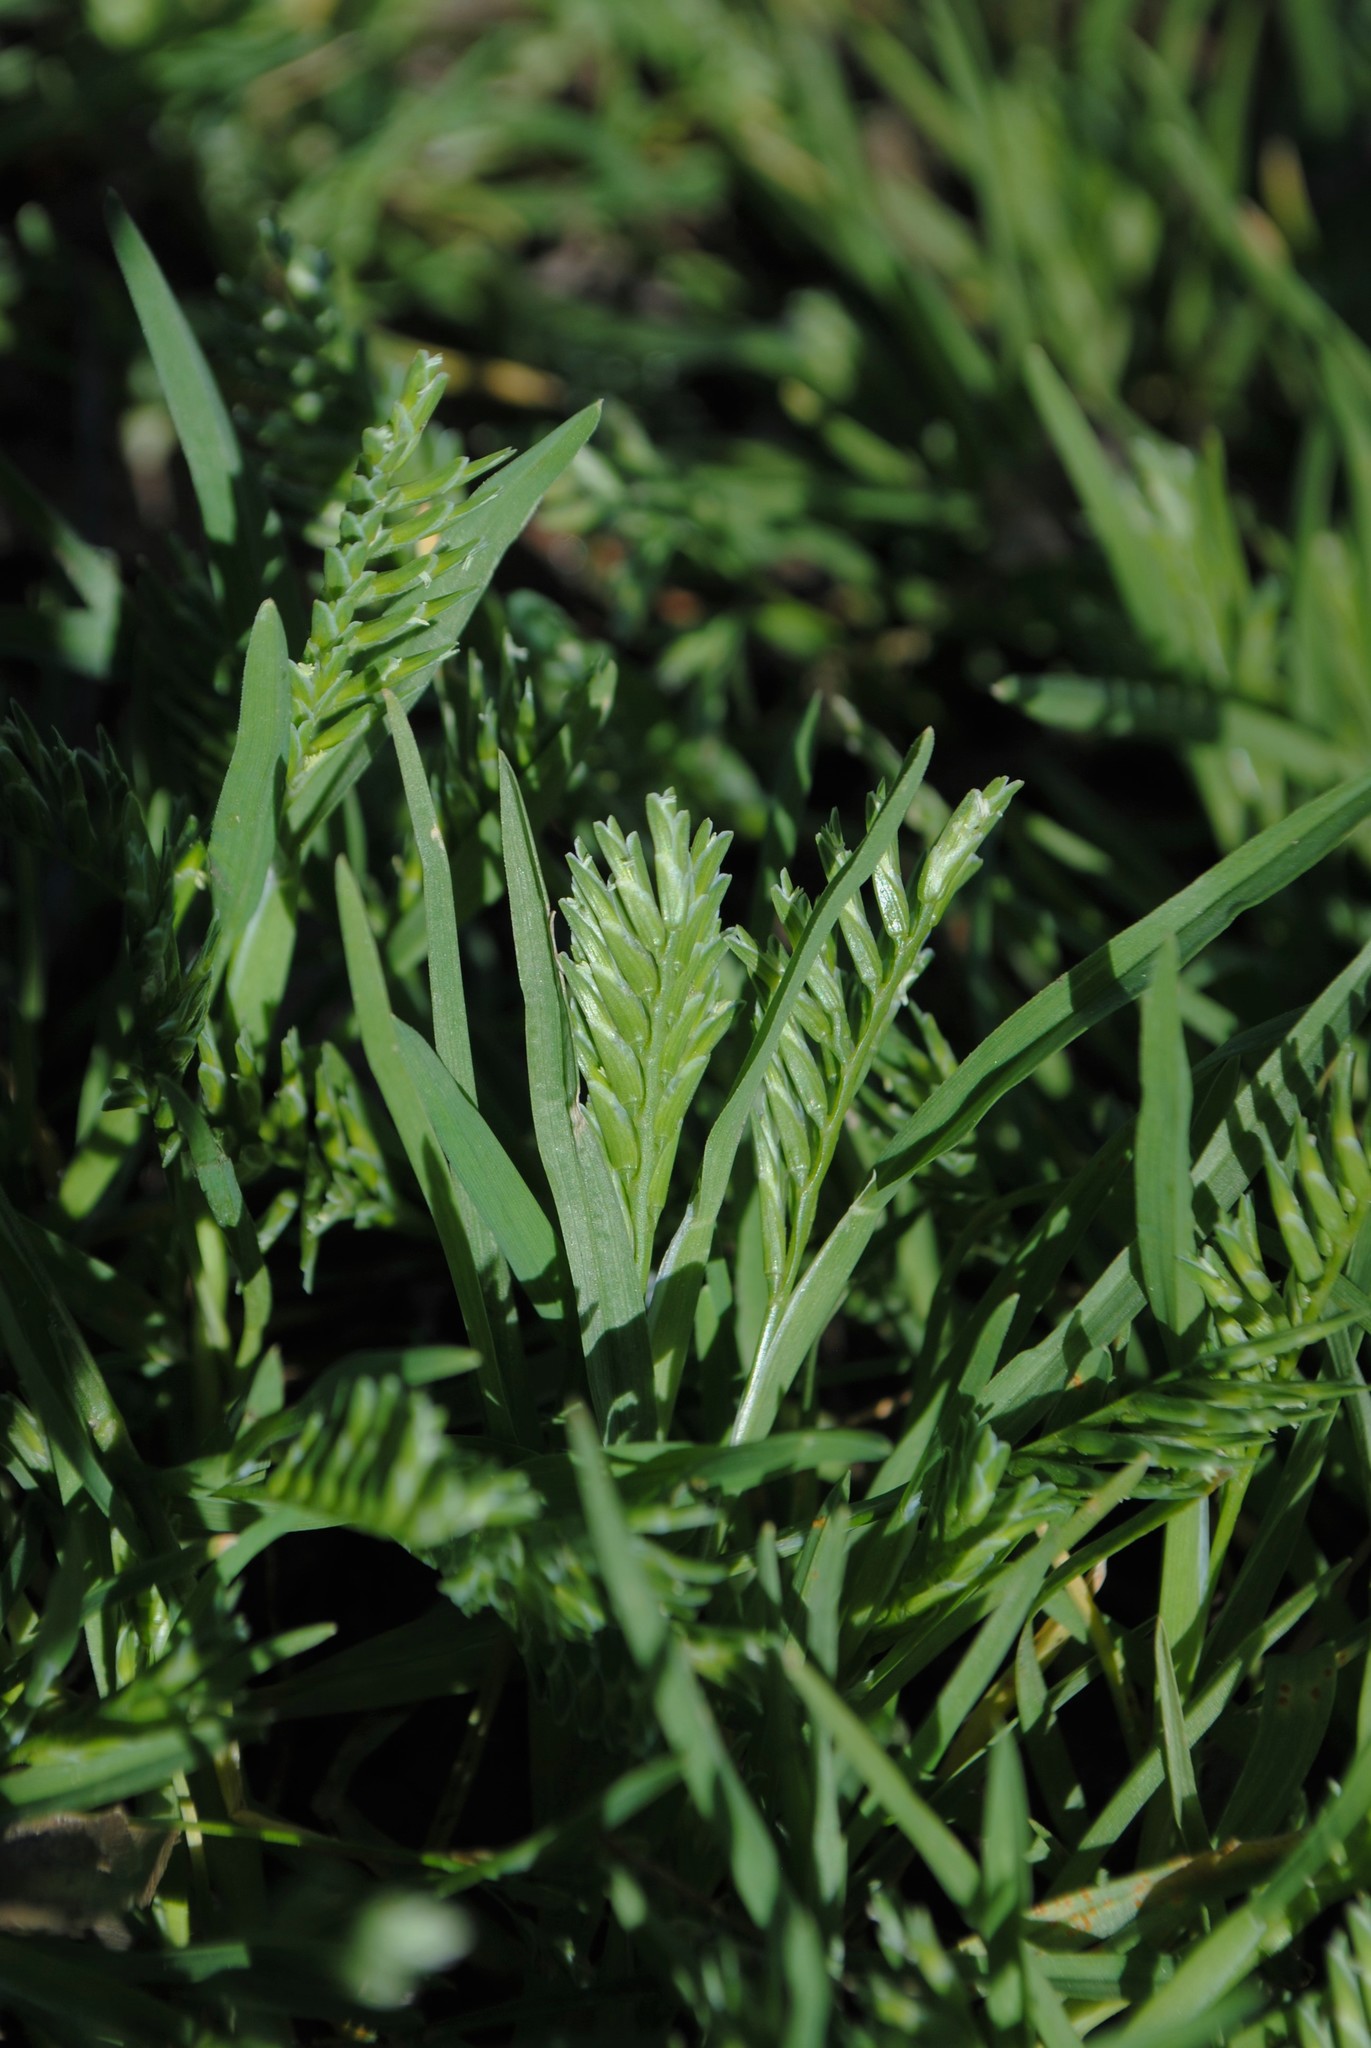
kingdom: Plantae
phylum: Tracheophyta
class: Liliopsida
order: Poales
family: Poaceae
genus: Sclerochloa
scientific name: Sclerochloa dura
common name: Common hardgrass
